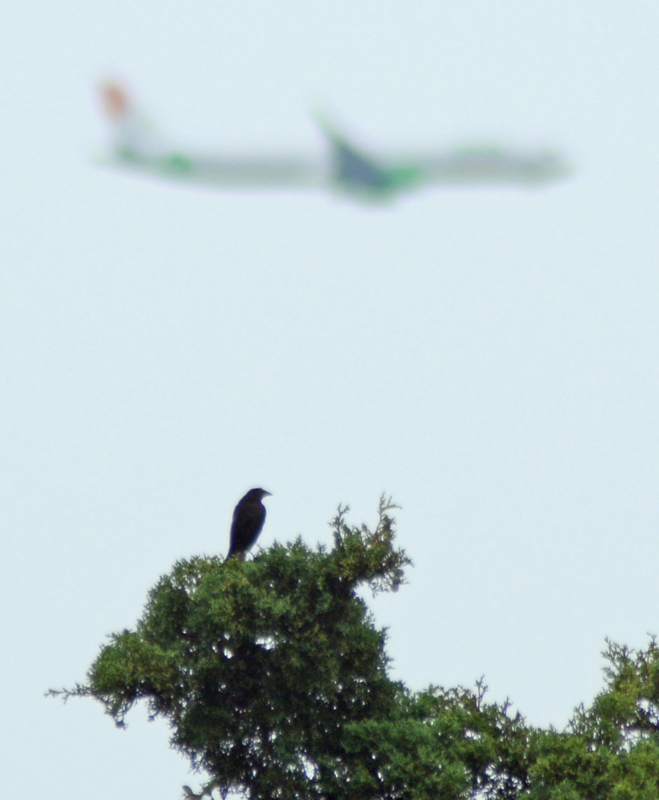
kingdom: Animalia
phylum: Chordata
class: Aves
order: Passeriformes
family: Icteridae
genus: Molothrus
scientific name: Molothrus aeneus
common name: Bronzed cowbird
